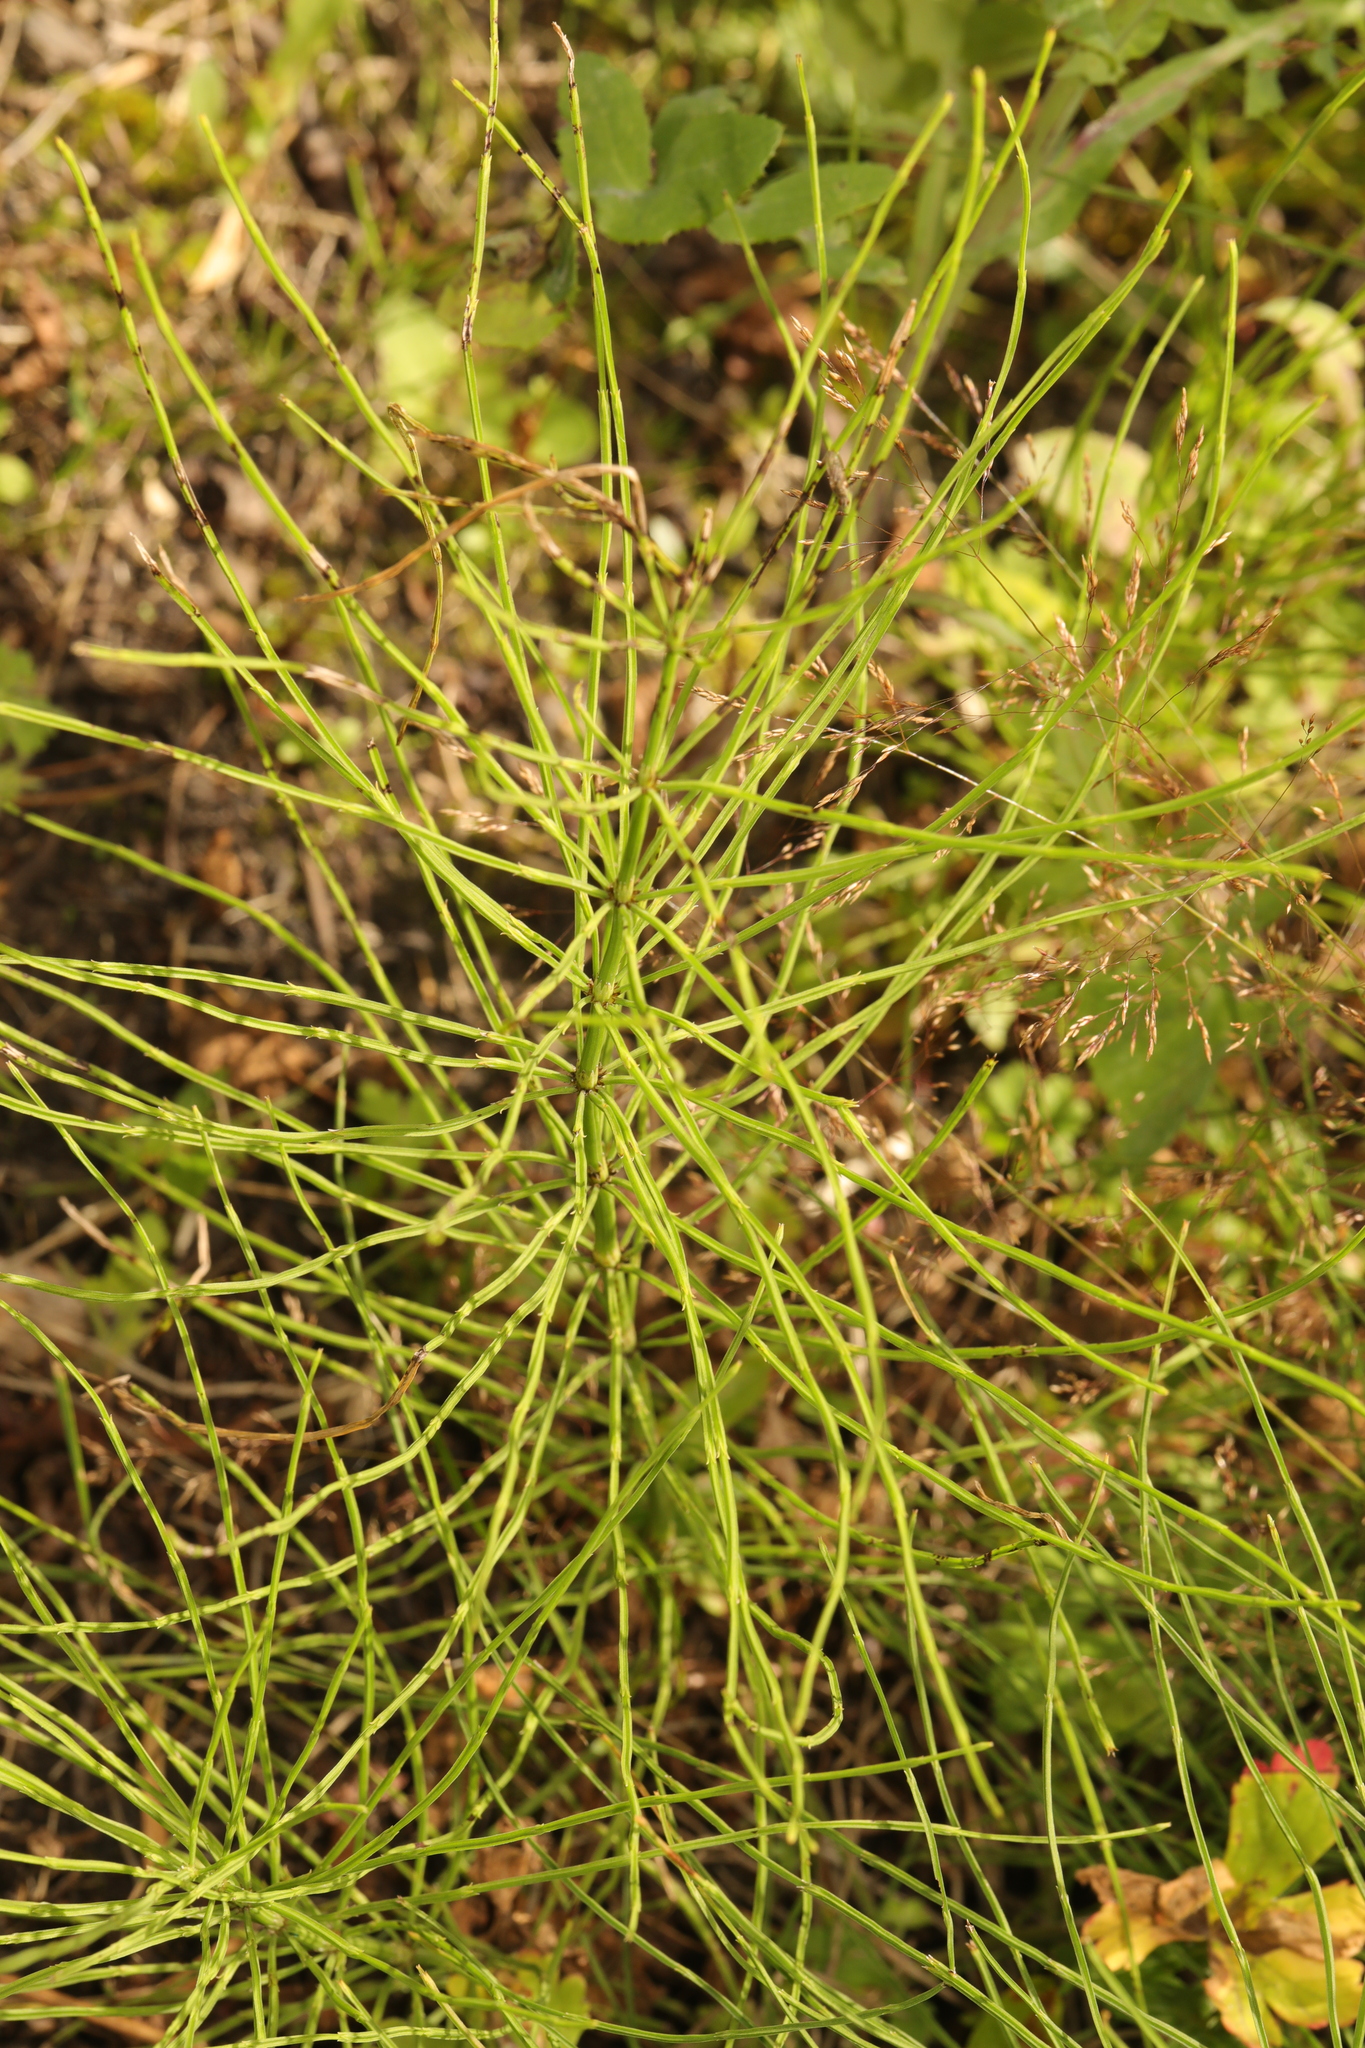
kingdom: Plantae
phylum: Tracheophyta
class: Polypodiopsida
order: Equisetales
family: Equisetaceae
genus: Equisetum
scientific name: Equisetum arvense
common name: Field horsetail
